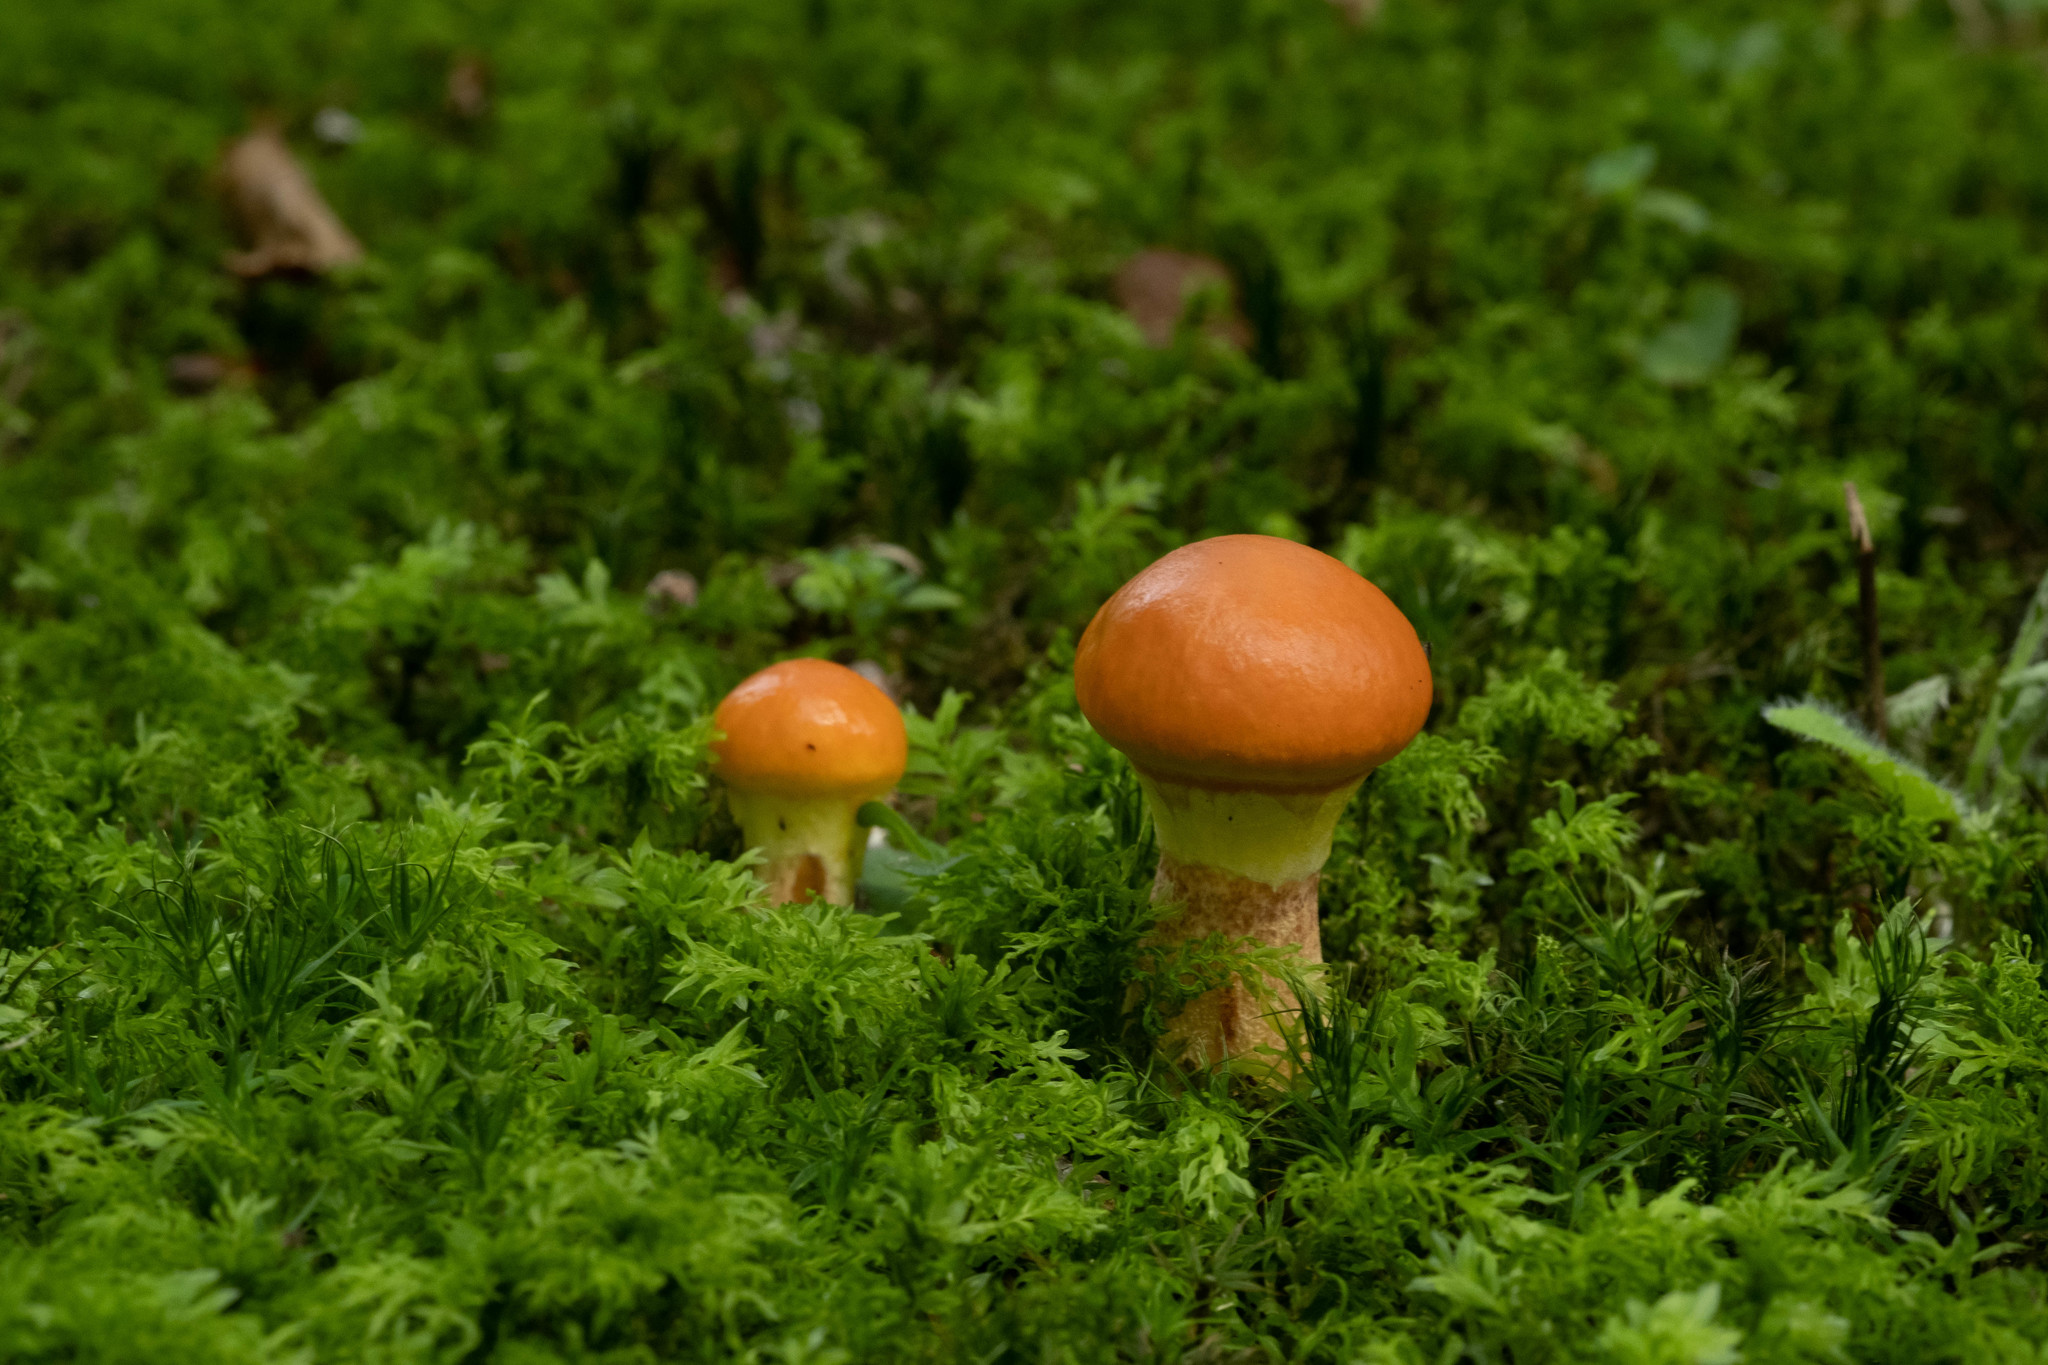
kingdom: Fungi
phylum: Basidiomycota
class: Agaricomycetes
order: Boletales
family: Suillaceae
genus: Suillus
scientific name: Suillus grevillei
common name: Larch bolete
